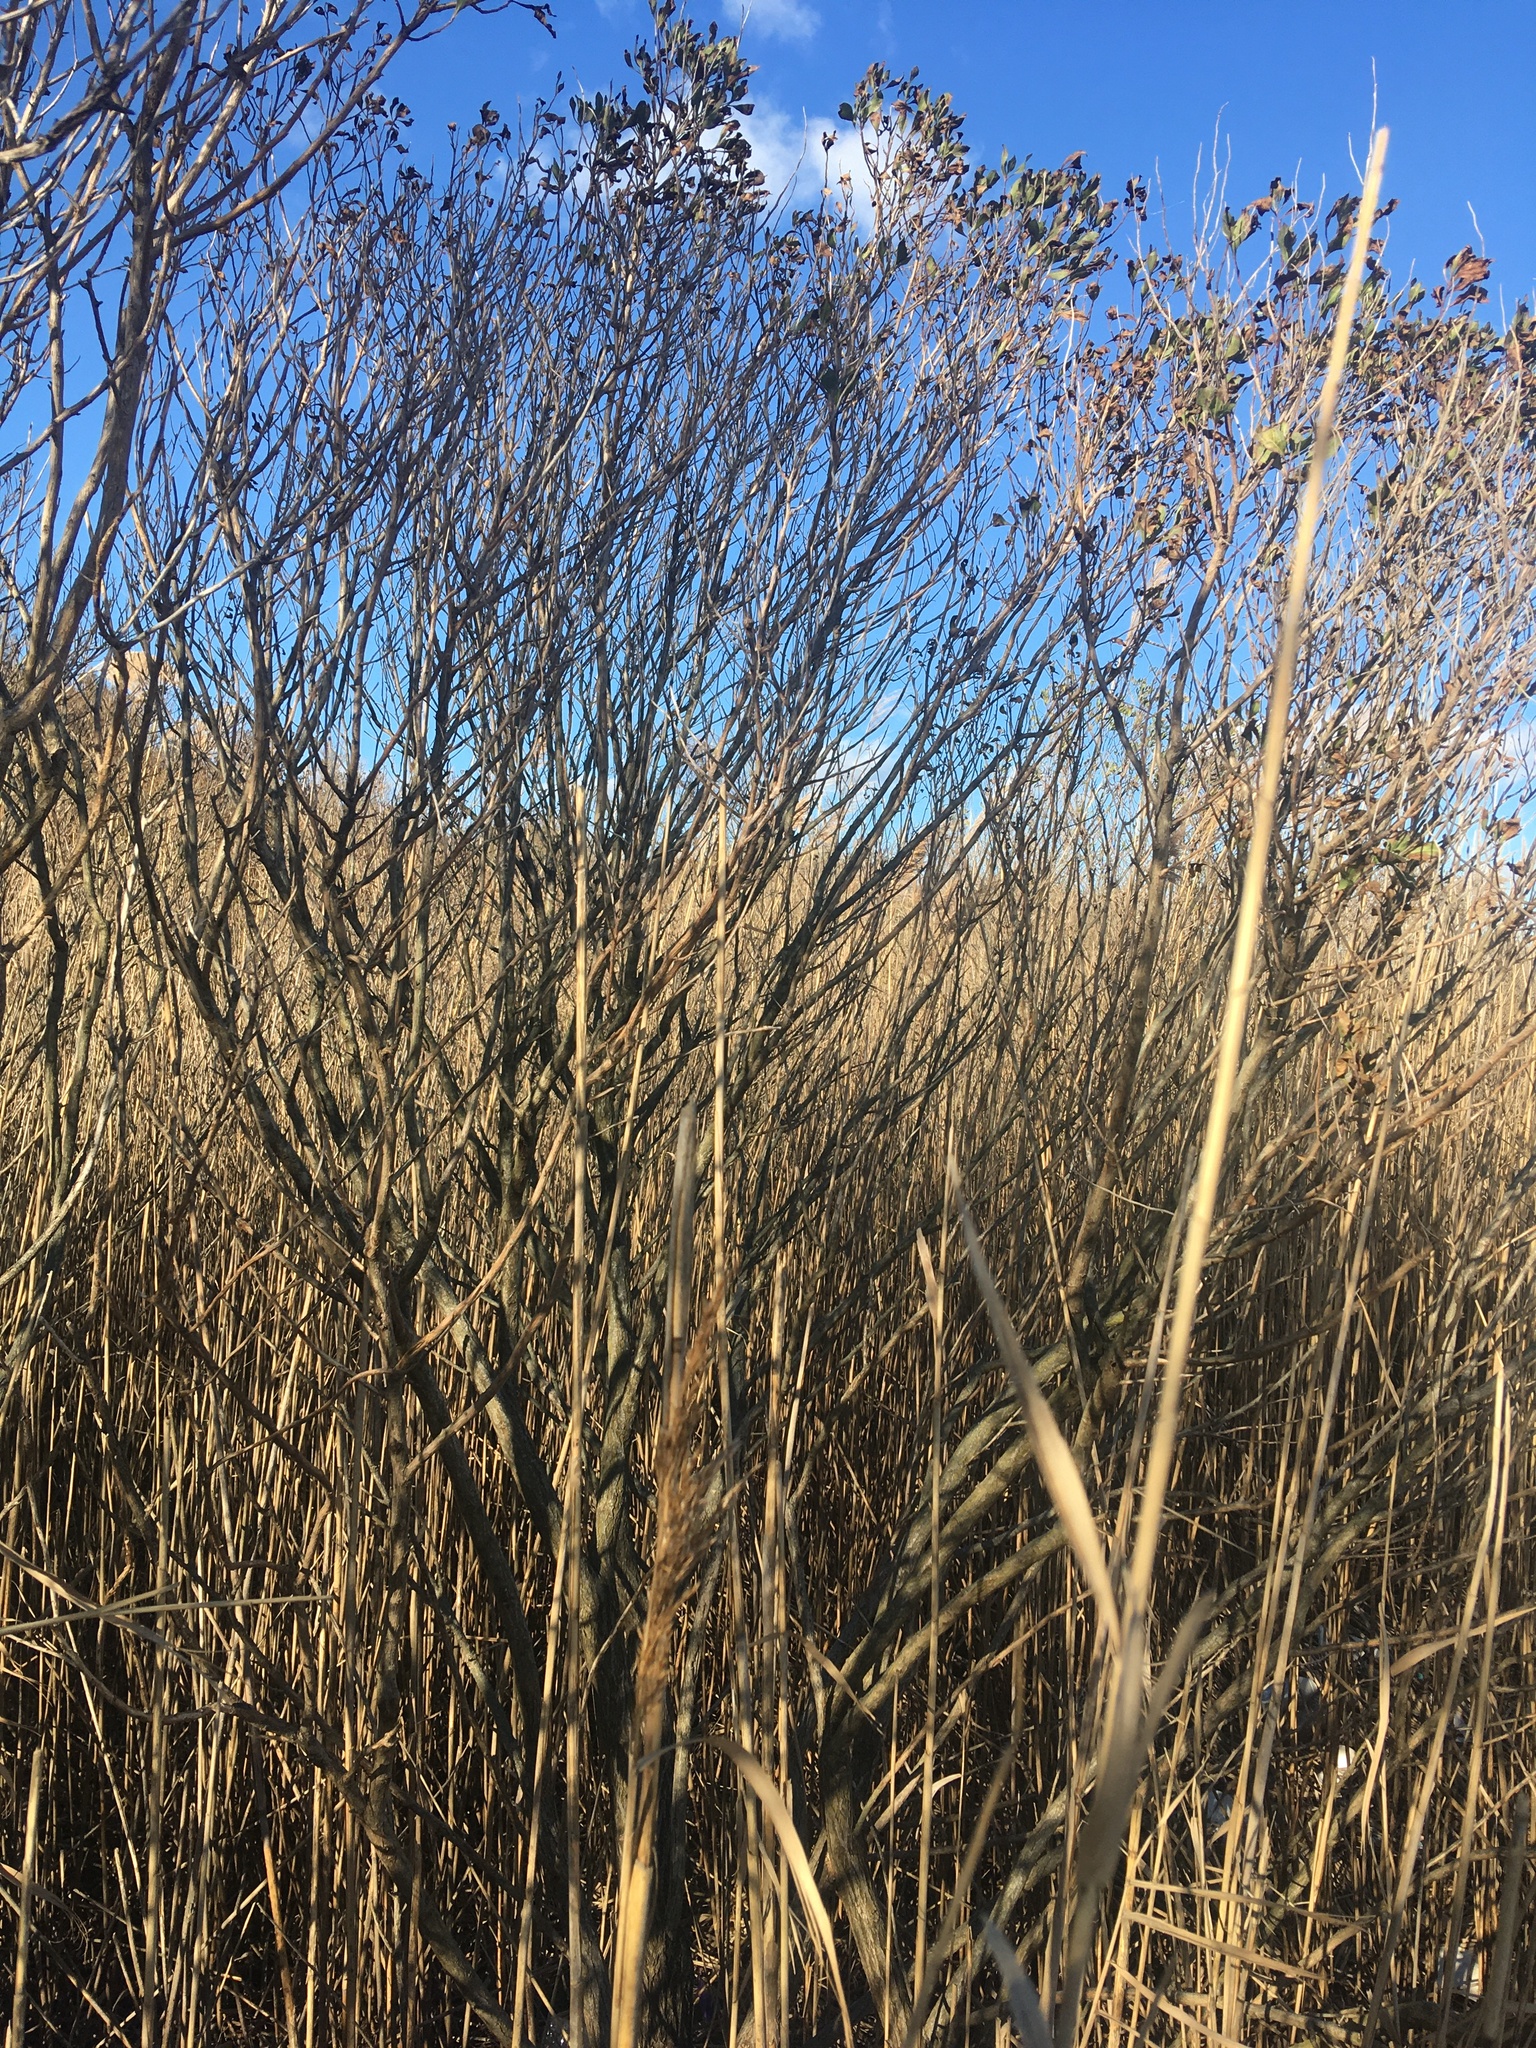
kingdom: Plantae
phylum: Tracheophyta
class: Magnoliopsida
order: Asterales
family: Asteraceae
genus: Baccharis
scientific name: Baccharis halimifolia
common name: Eastern baccharis
